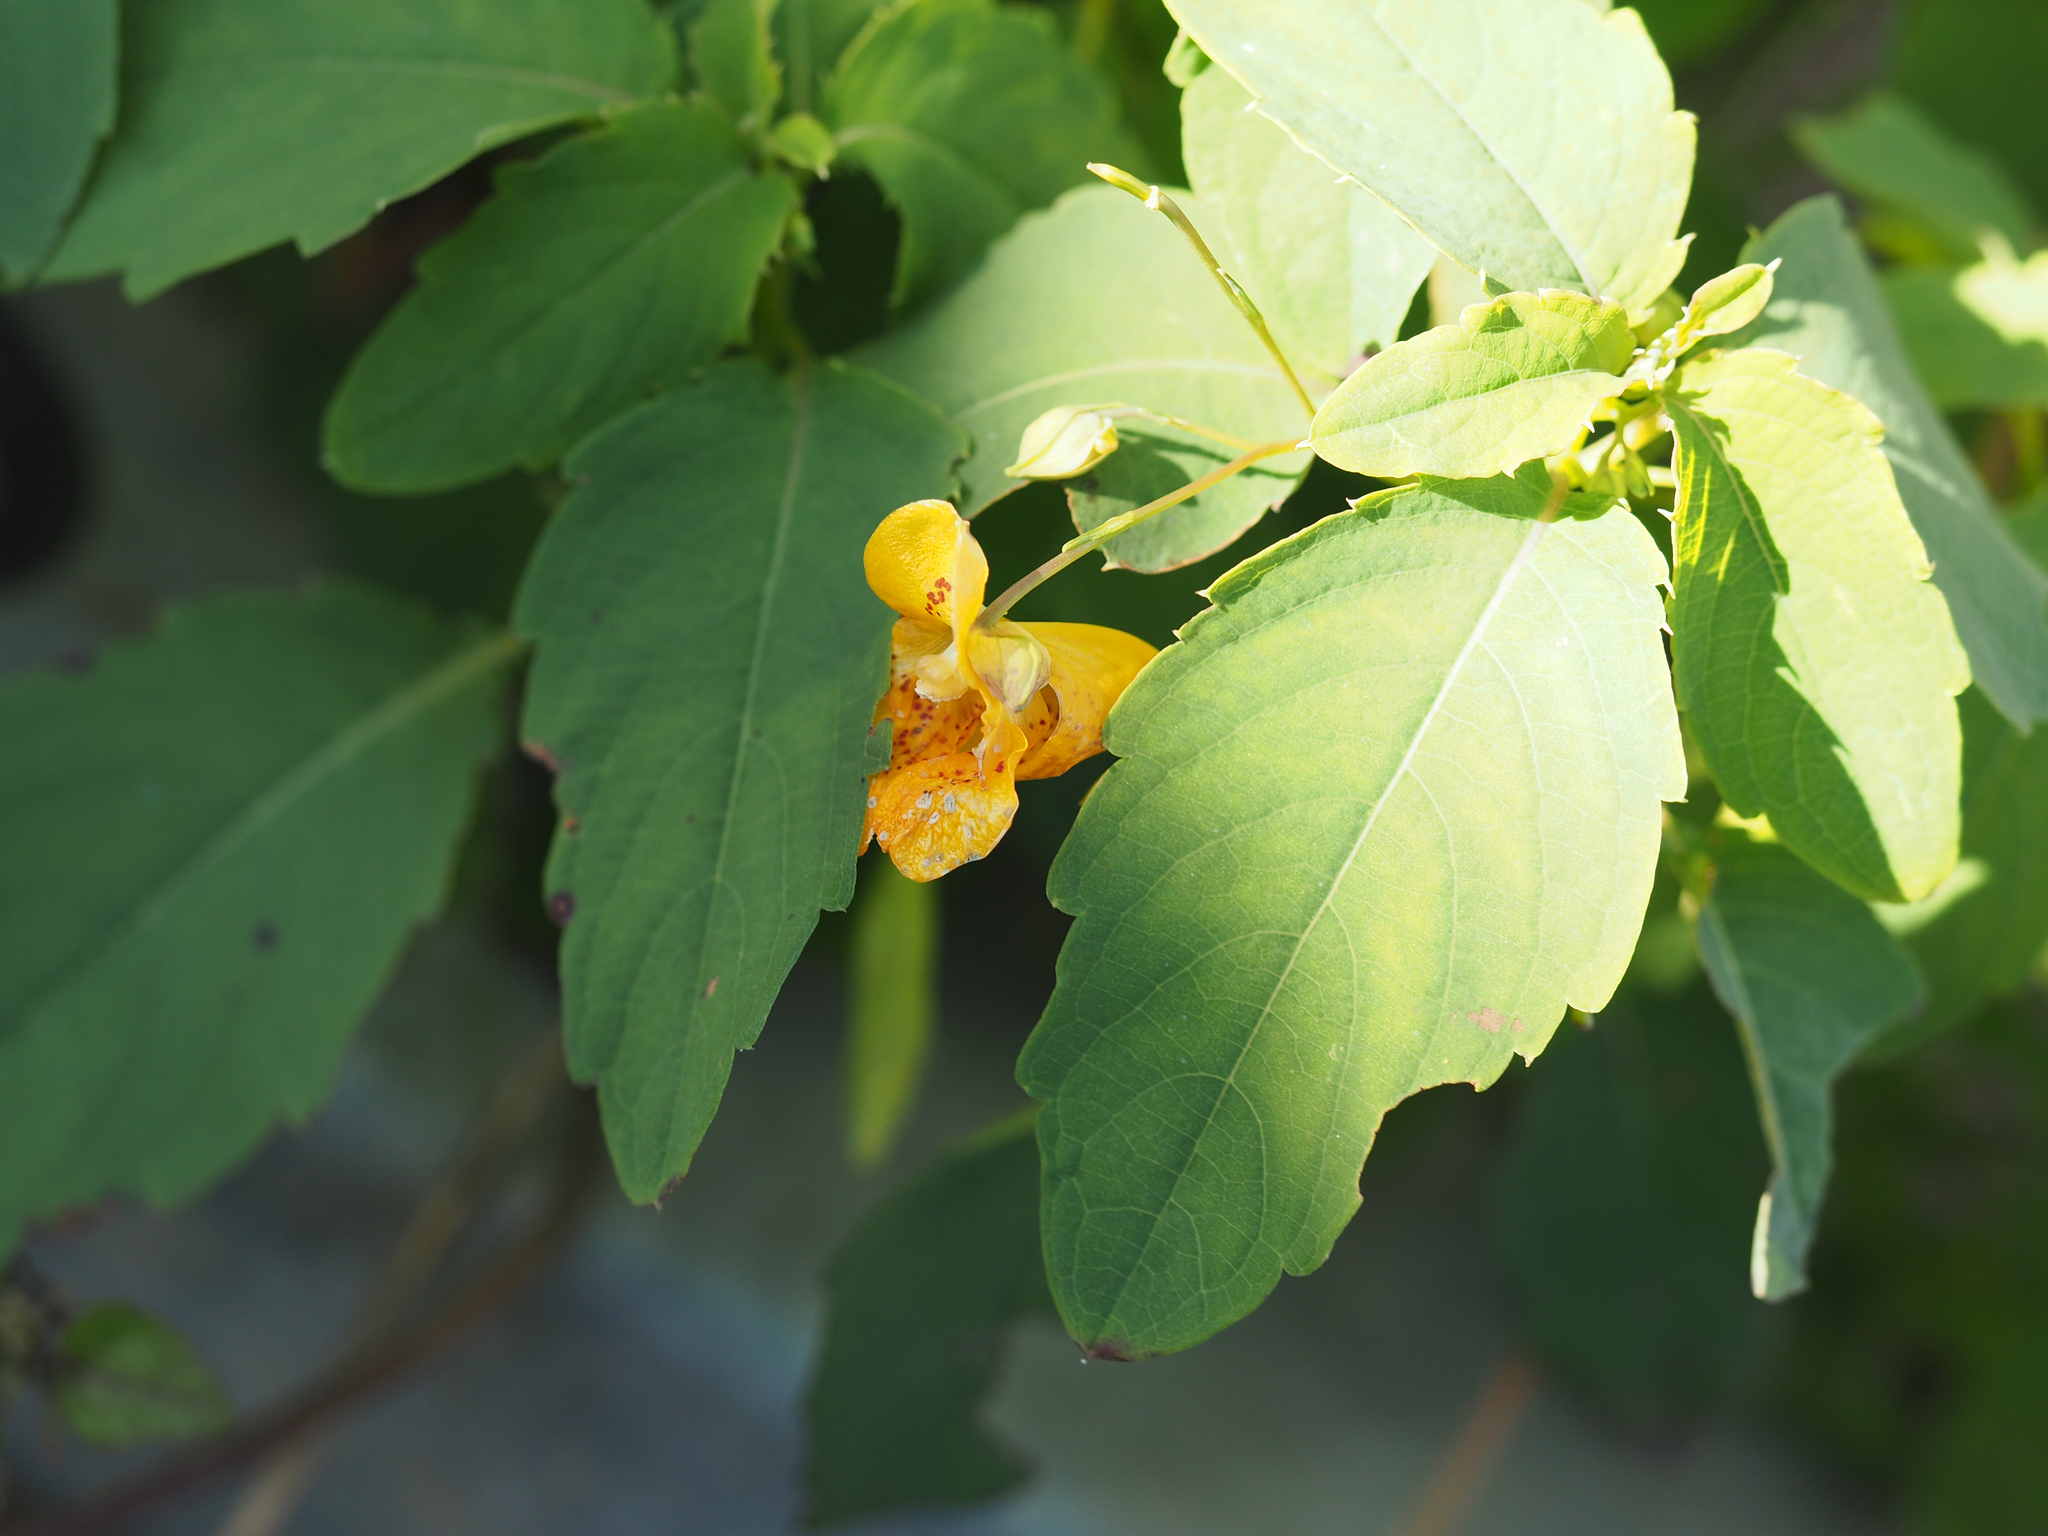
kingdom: Plantae
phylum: Tracheophyta
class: Magnoliopsida
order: Ericales
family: Balsaminaceae
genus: Impatiens
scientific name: Impatiens capensis
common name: Orange balsam
